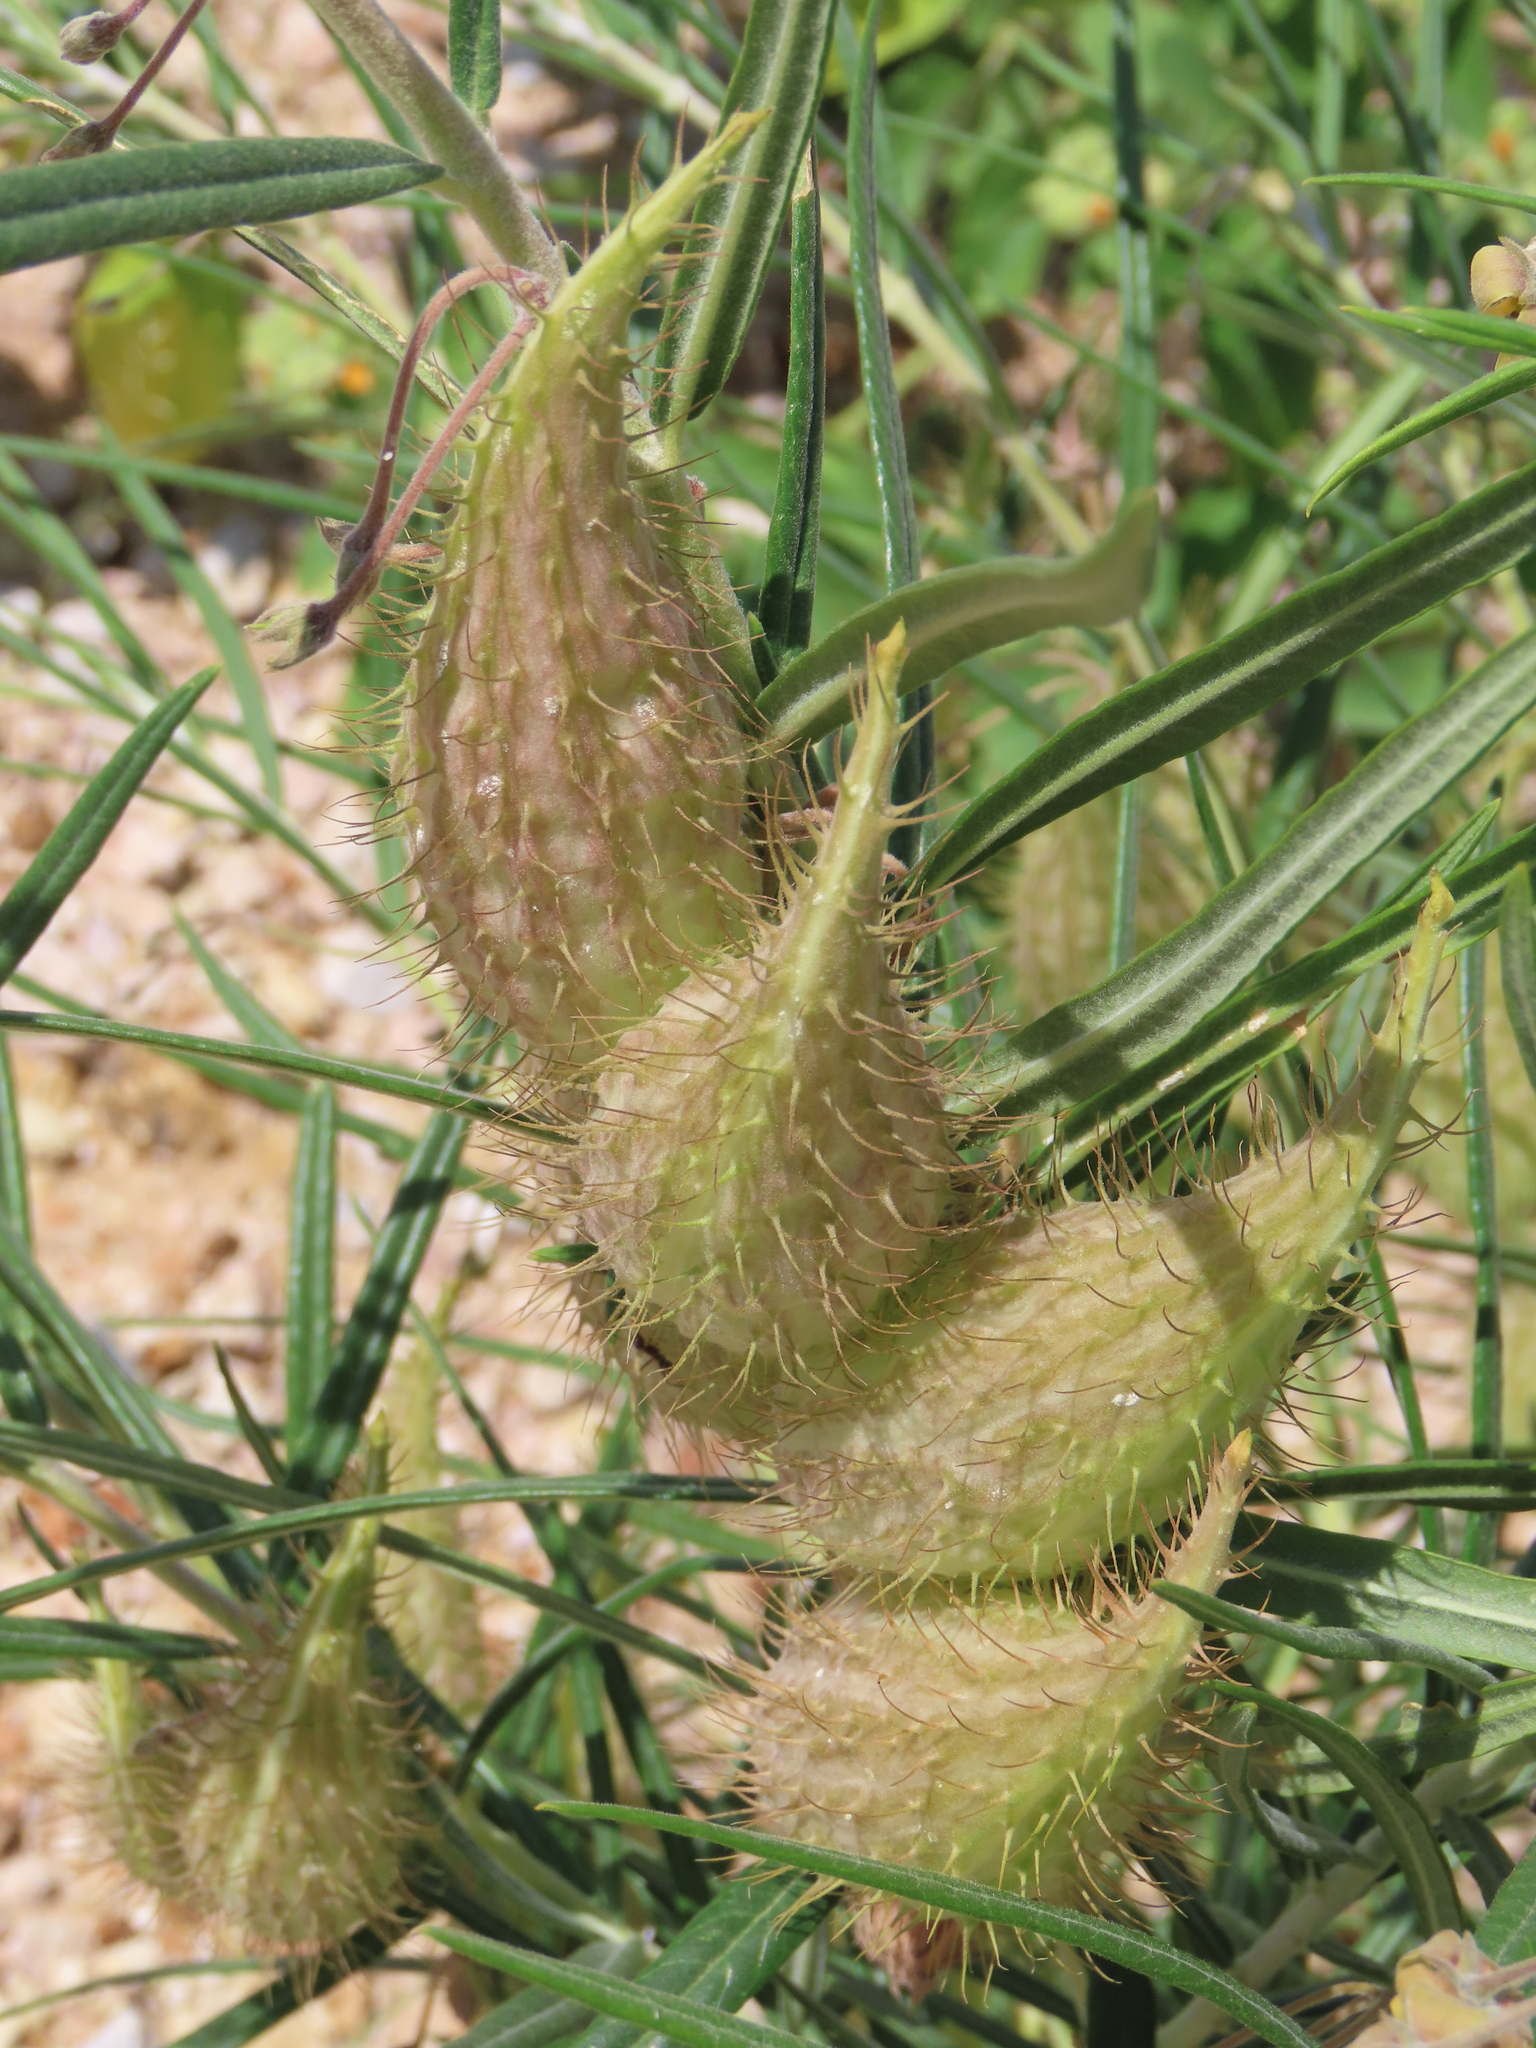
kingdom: Plantae
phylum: Tracheophyta
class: Magnoliopsida
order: Gentianales
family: Apocynaceae
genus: Gomphocarpus
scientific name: Gomphocarpus fruticosus
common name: Milkweed
